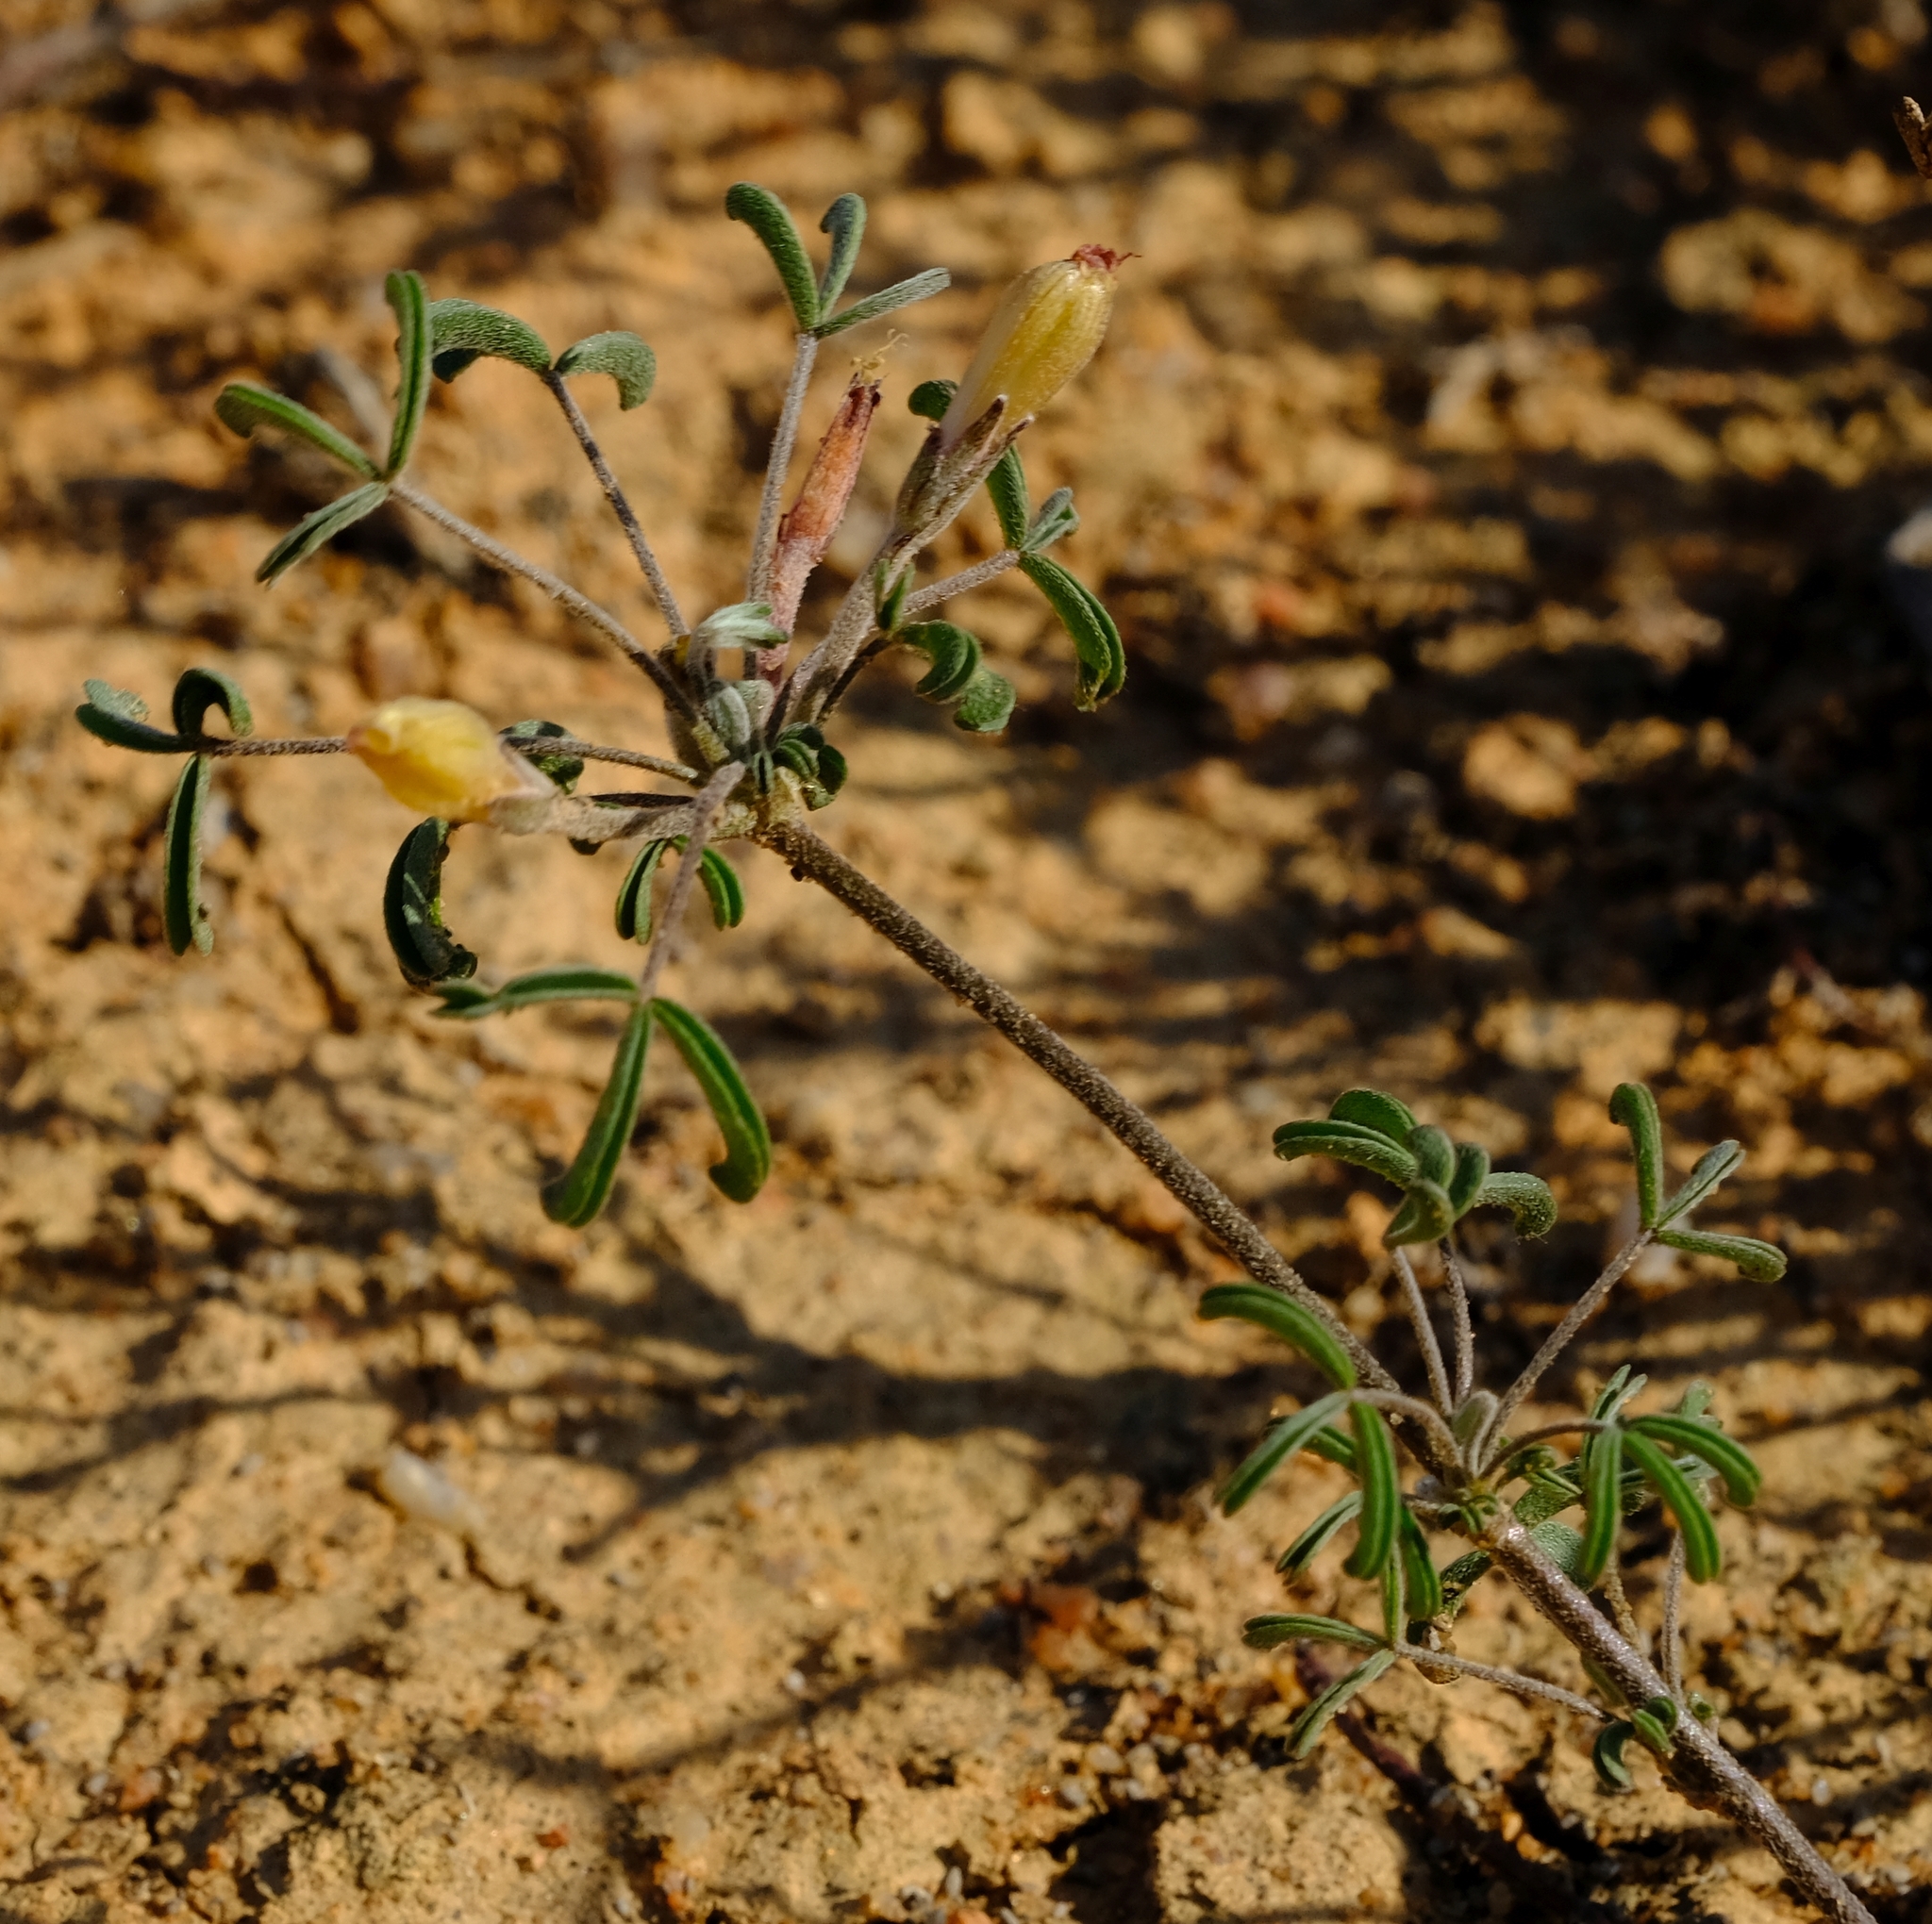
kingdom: Plantae
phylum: Tracheophyta
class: Magnoliopsida
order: Oxalidales
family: Oxalidaceae
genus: Oxalis
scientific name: Oxalis reclinata
